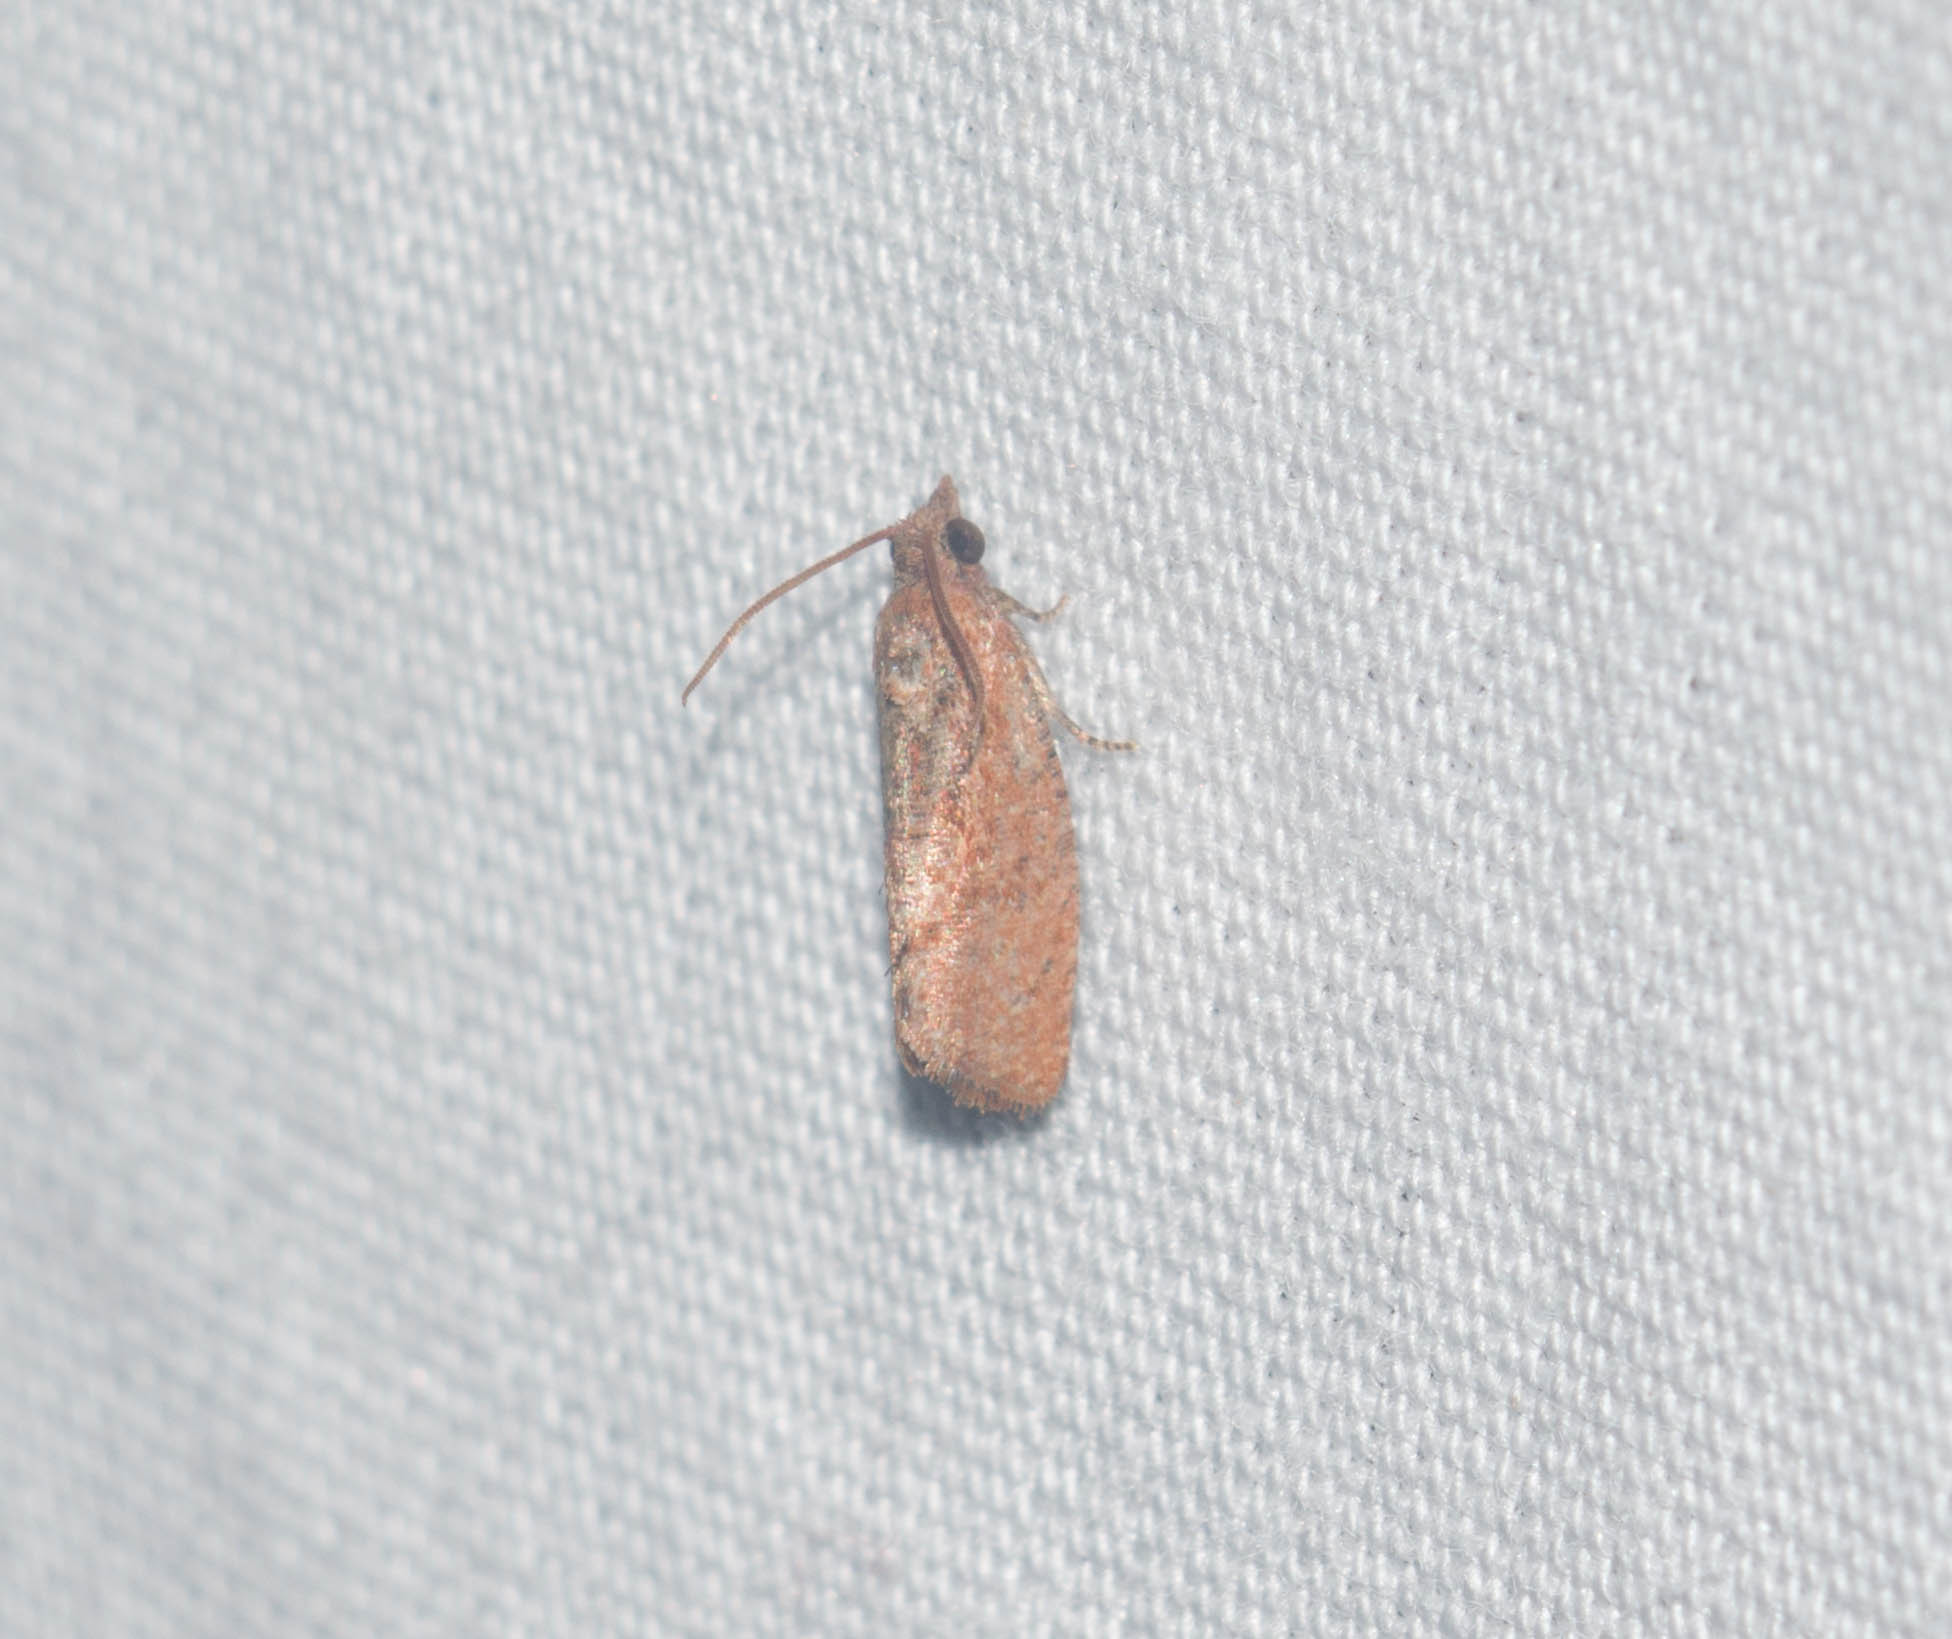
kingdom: Animalia
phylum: Arthropoda
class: Insecta
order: Lepidoptera
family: Tortricidae
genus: Cryptophlebia
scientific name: Cryptophlebia illepida
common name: Moth
